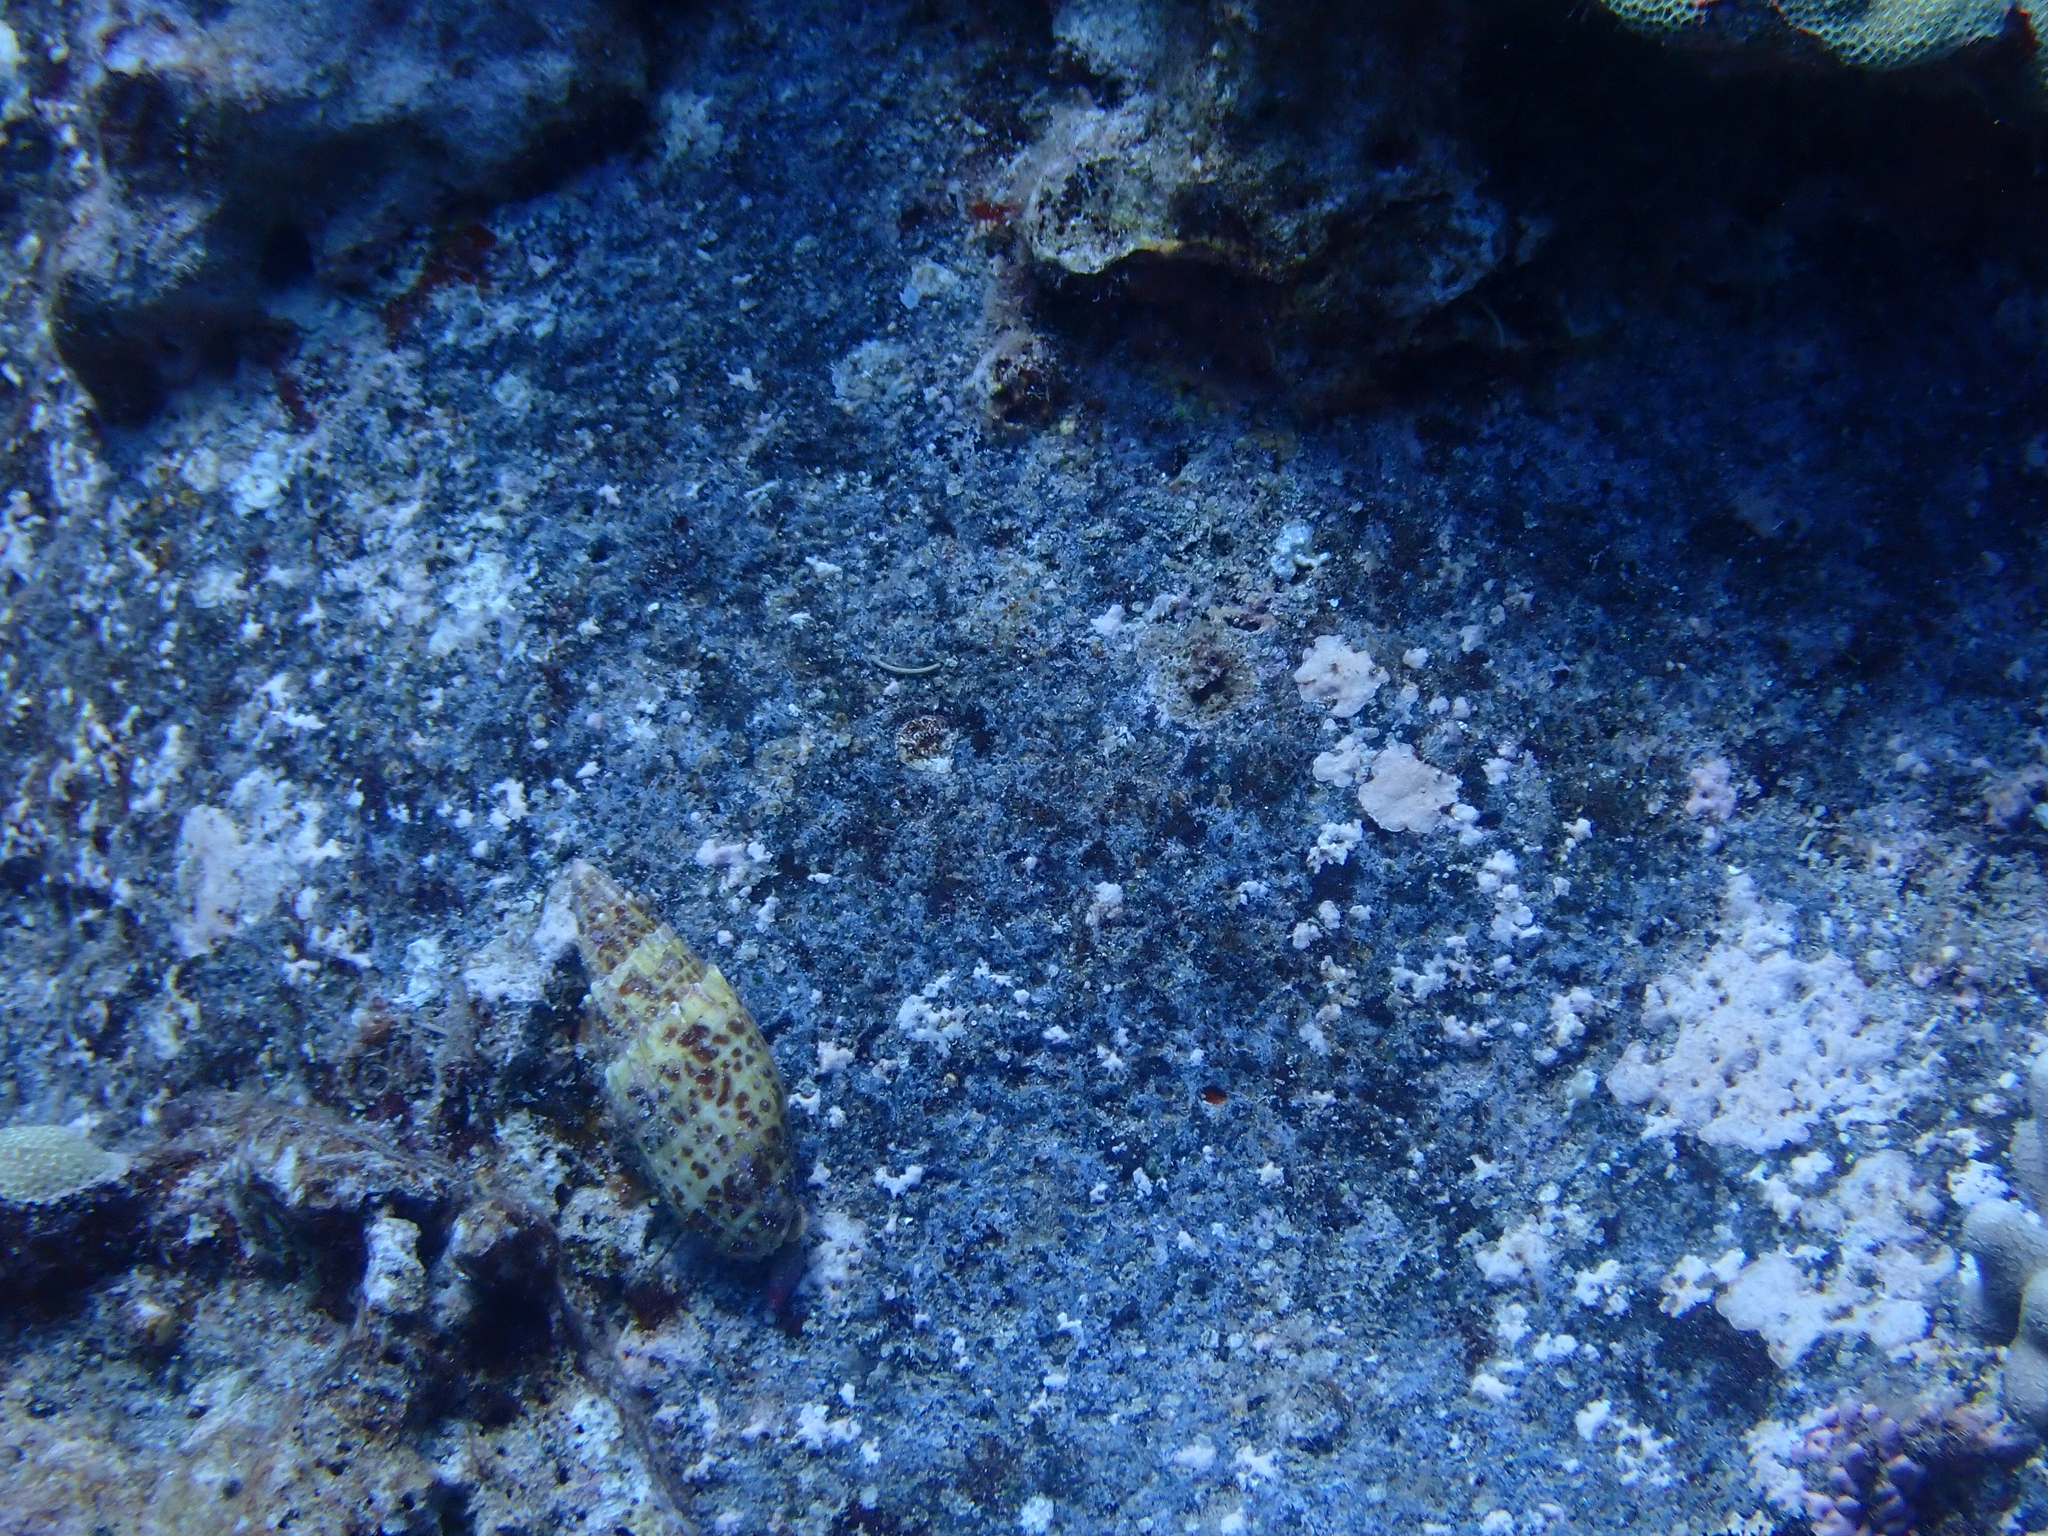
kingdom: Animalia
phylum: Mollusca
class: Gastropoda
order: Neogastropoda
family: Mitridae
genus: Mitra
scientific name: Mitra papalis
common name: Papal miter
